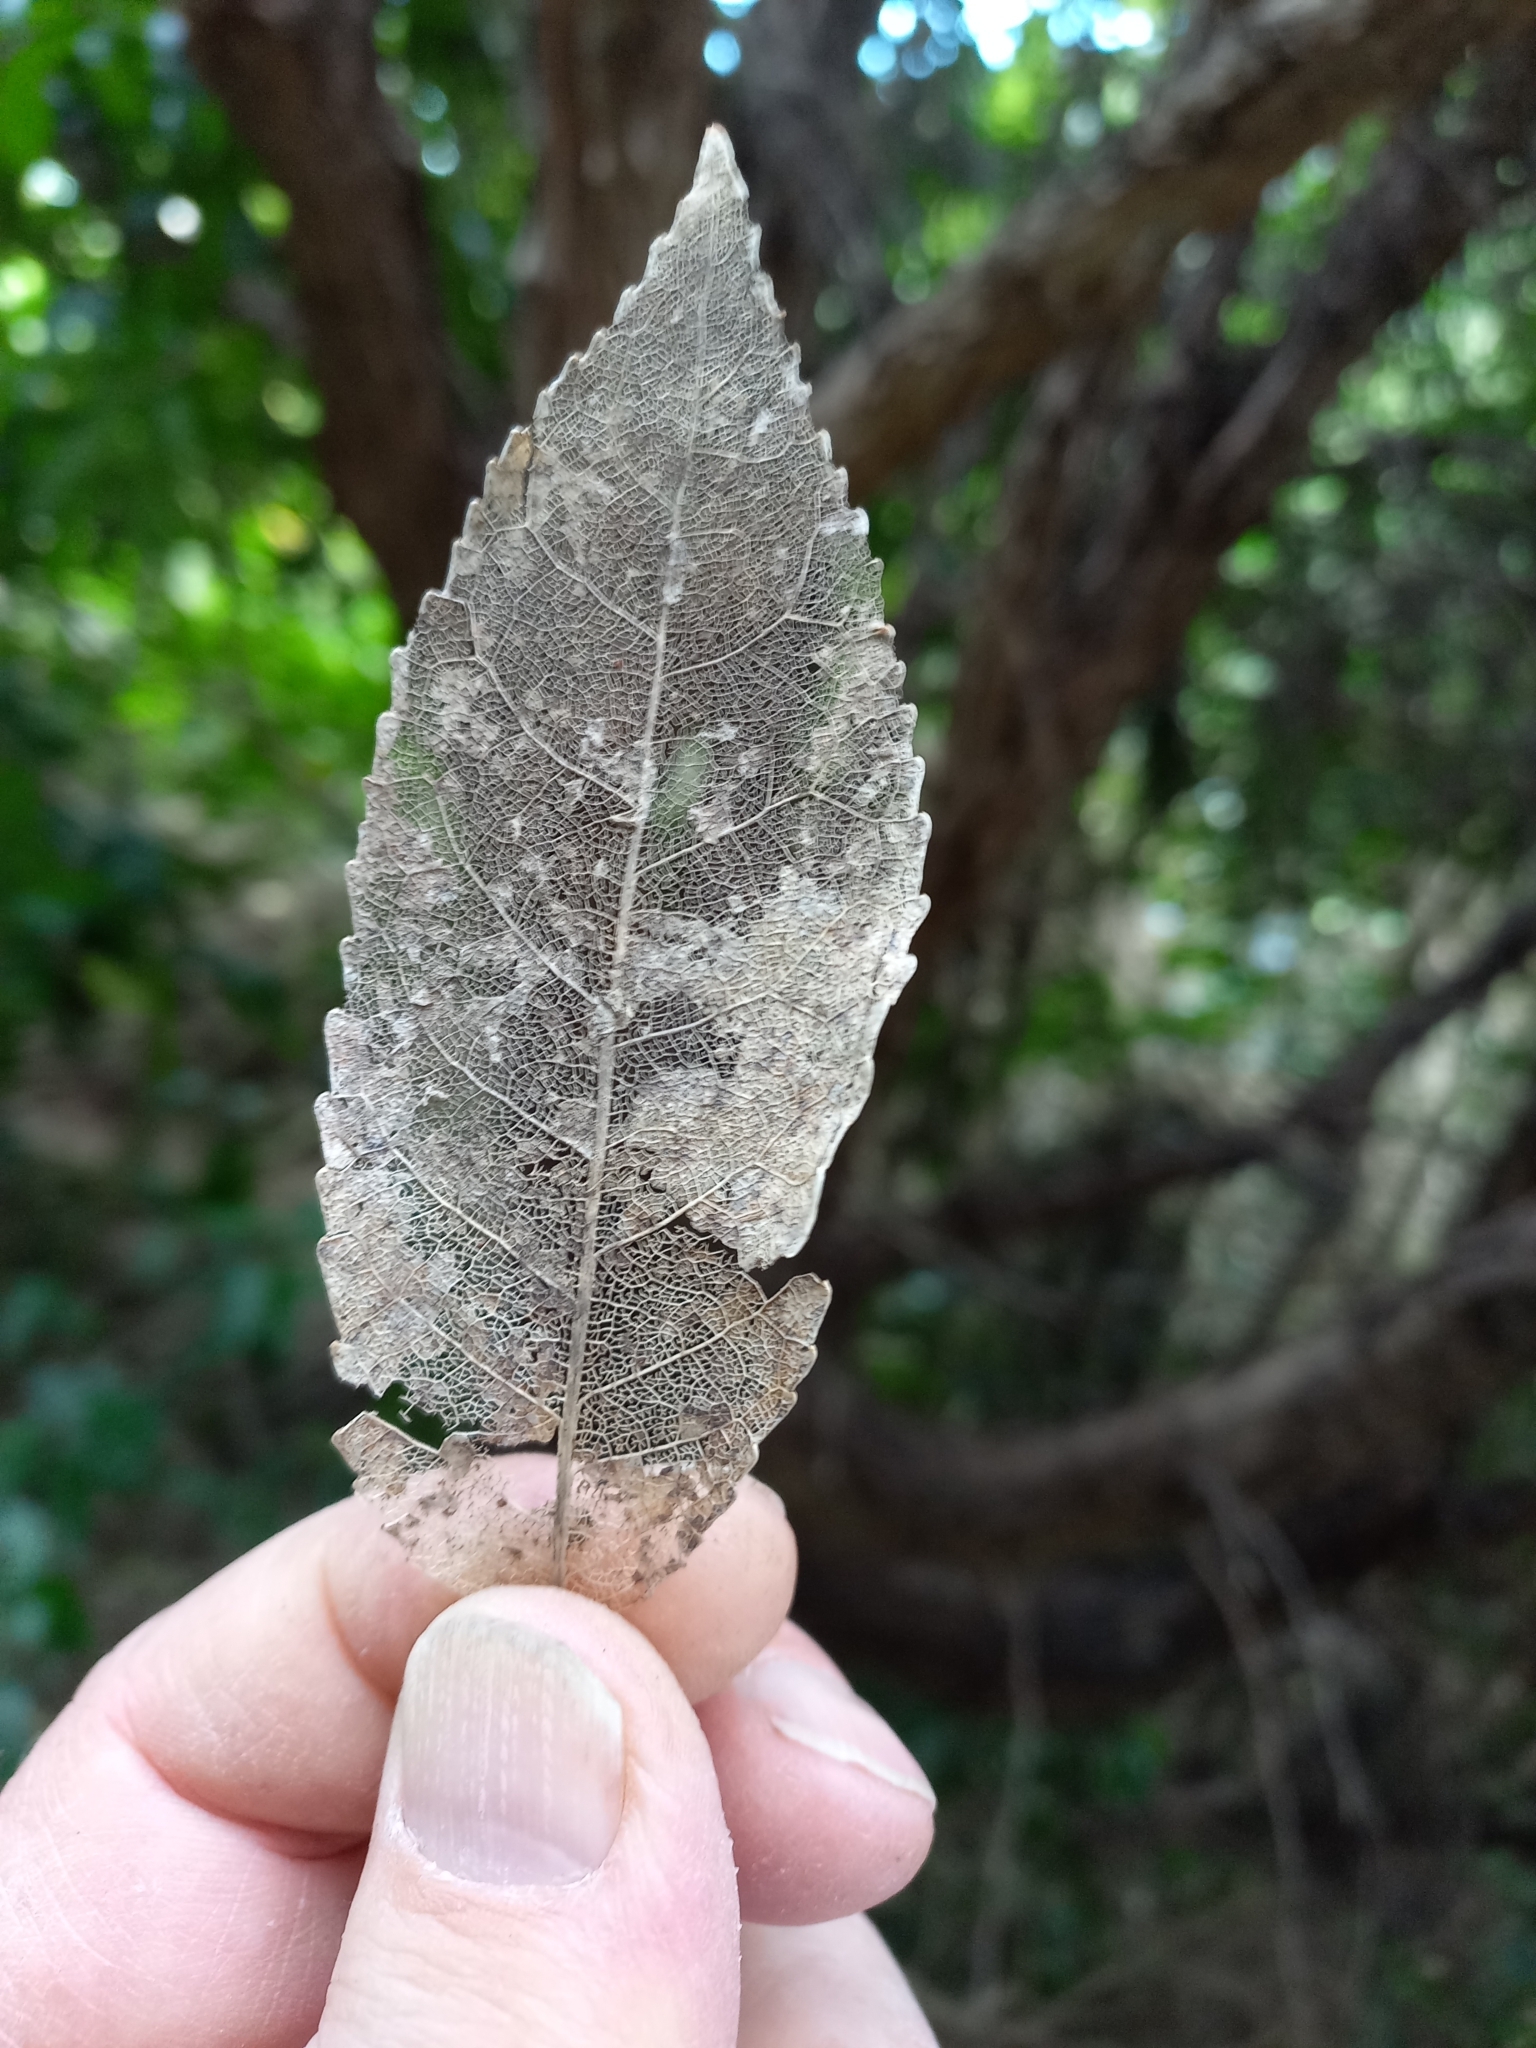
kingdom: Plantae
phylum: Tracheophyta
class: Magnoliopsida
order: Malpighiales
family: Violaceae
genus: Melicytus
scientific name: Melicytus ramiflorus
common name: Mahoe
